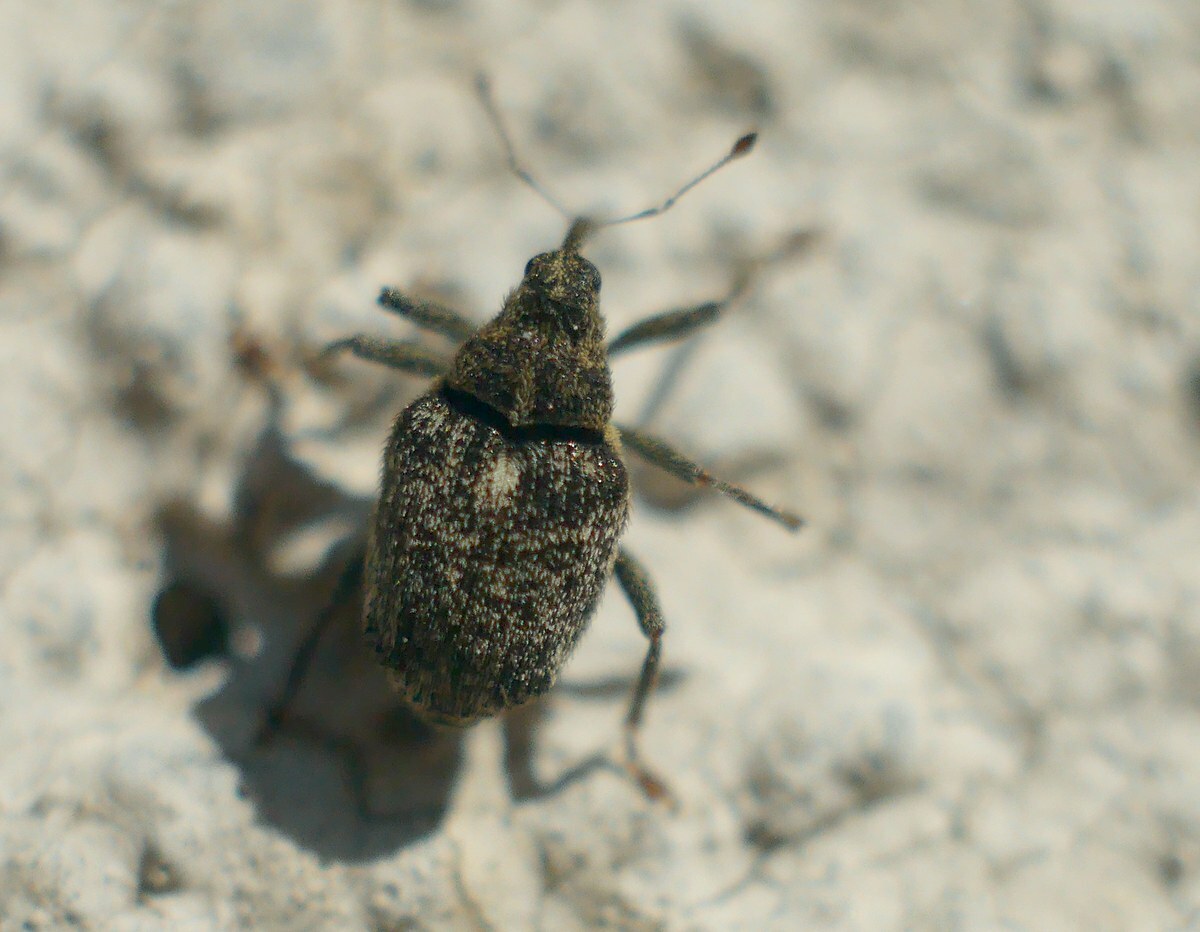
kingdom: Animalia
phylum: Arthropoda
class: Insecta
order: Coleoptera
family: Curculionidae
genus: Ceutorhynchus
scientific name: Ceutorhynchus pallidactylus
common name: Cabbage stem weavil
